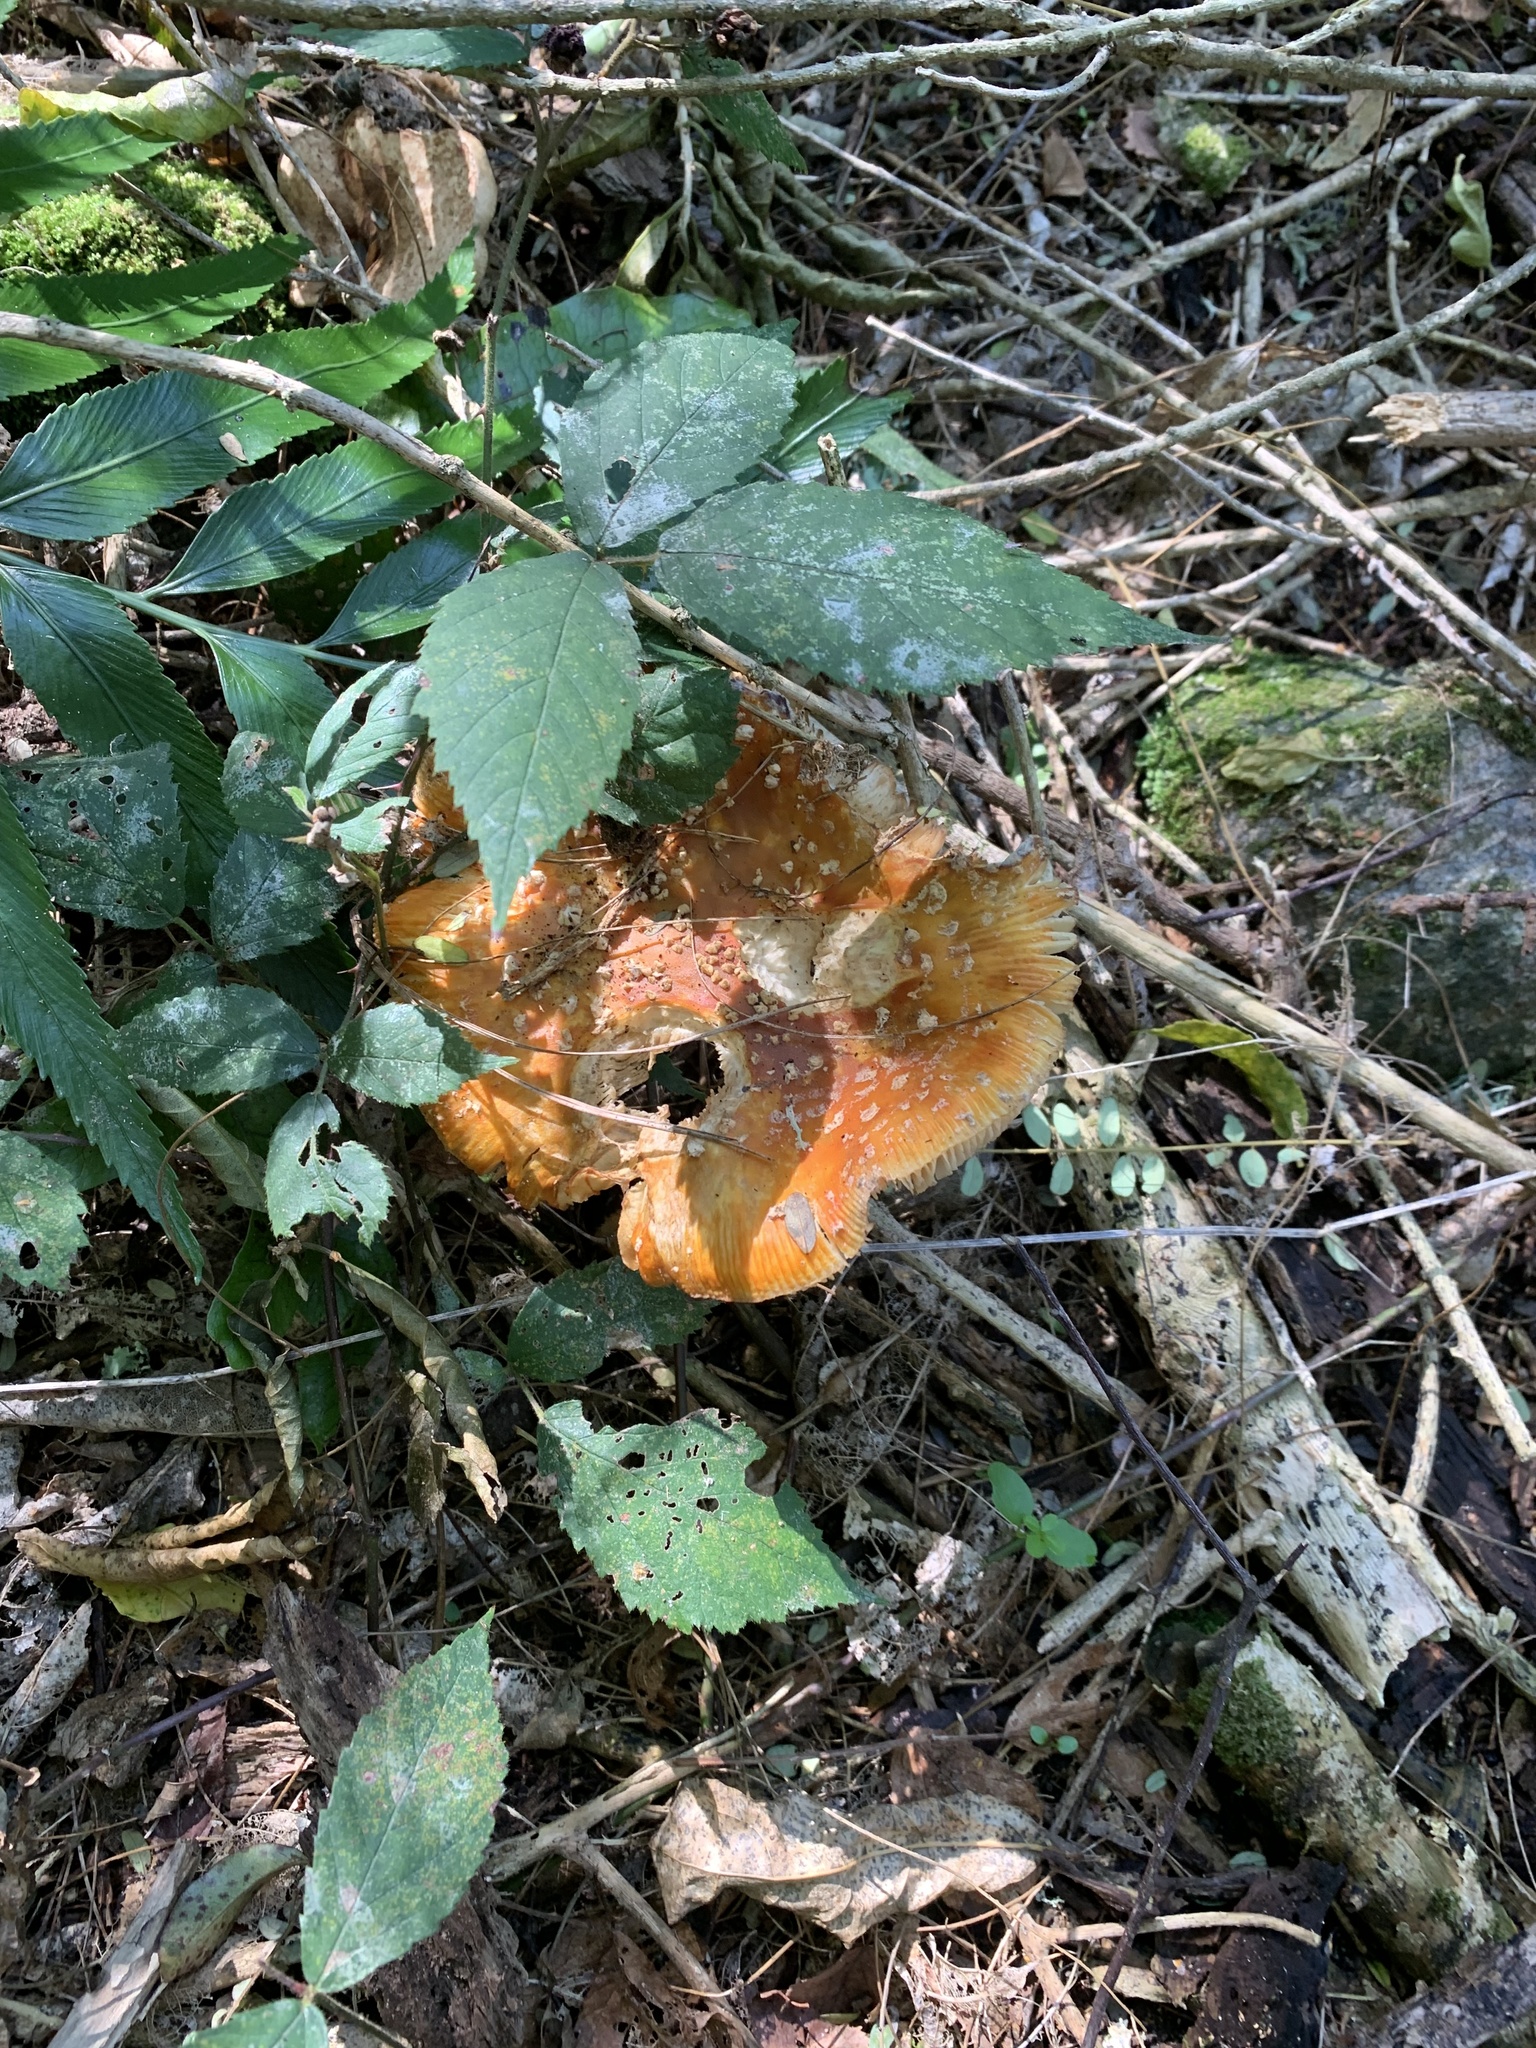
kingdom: Fungi
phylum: Basidiomycota
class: Agaricomycetes
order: Agaricales
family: Amanitaceae
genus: Amanita
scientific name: Amanita muscaria
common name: Fly agaric
